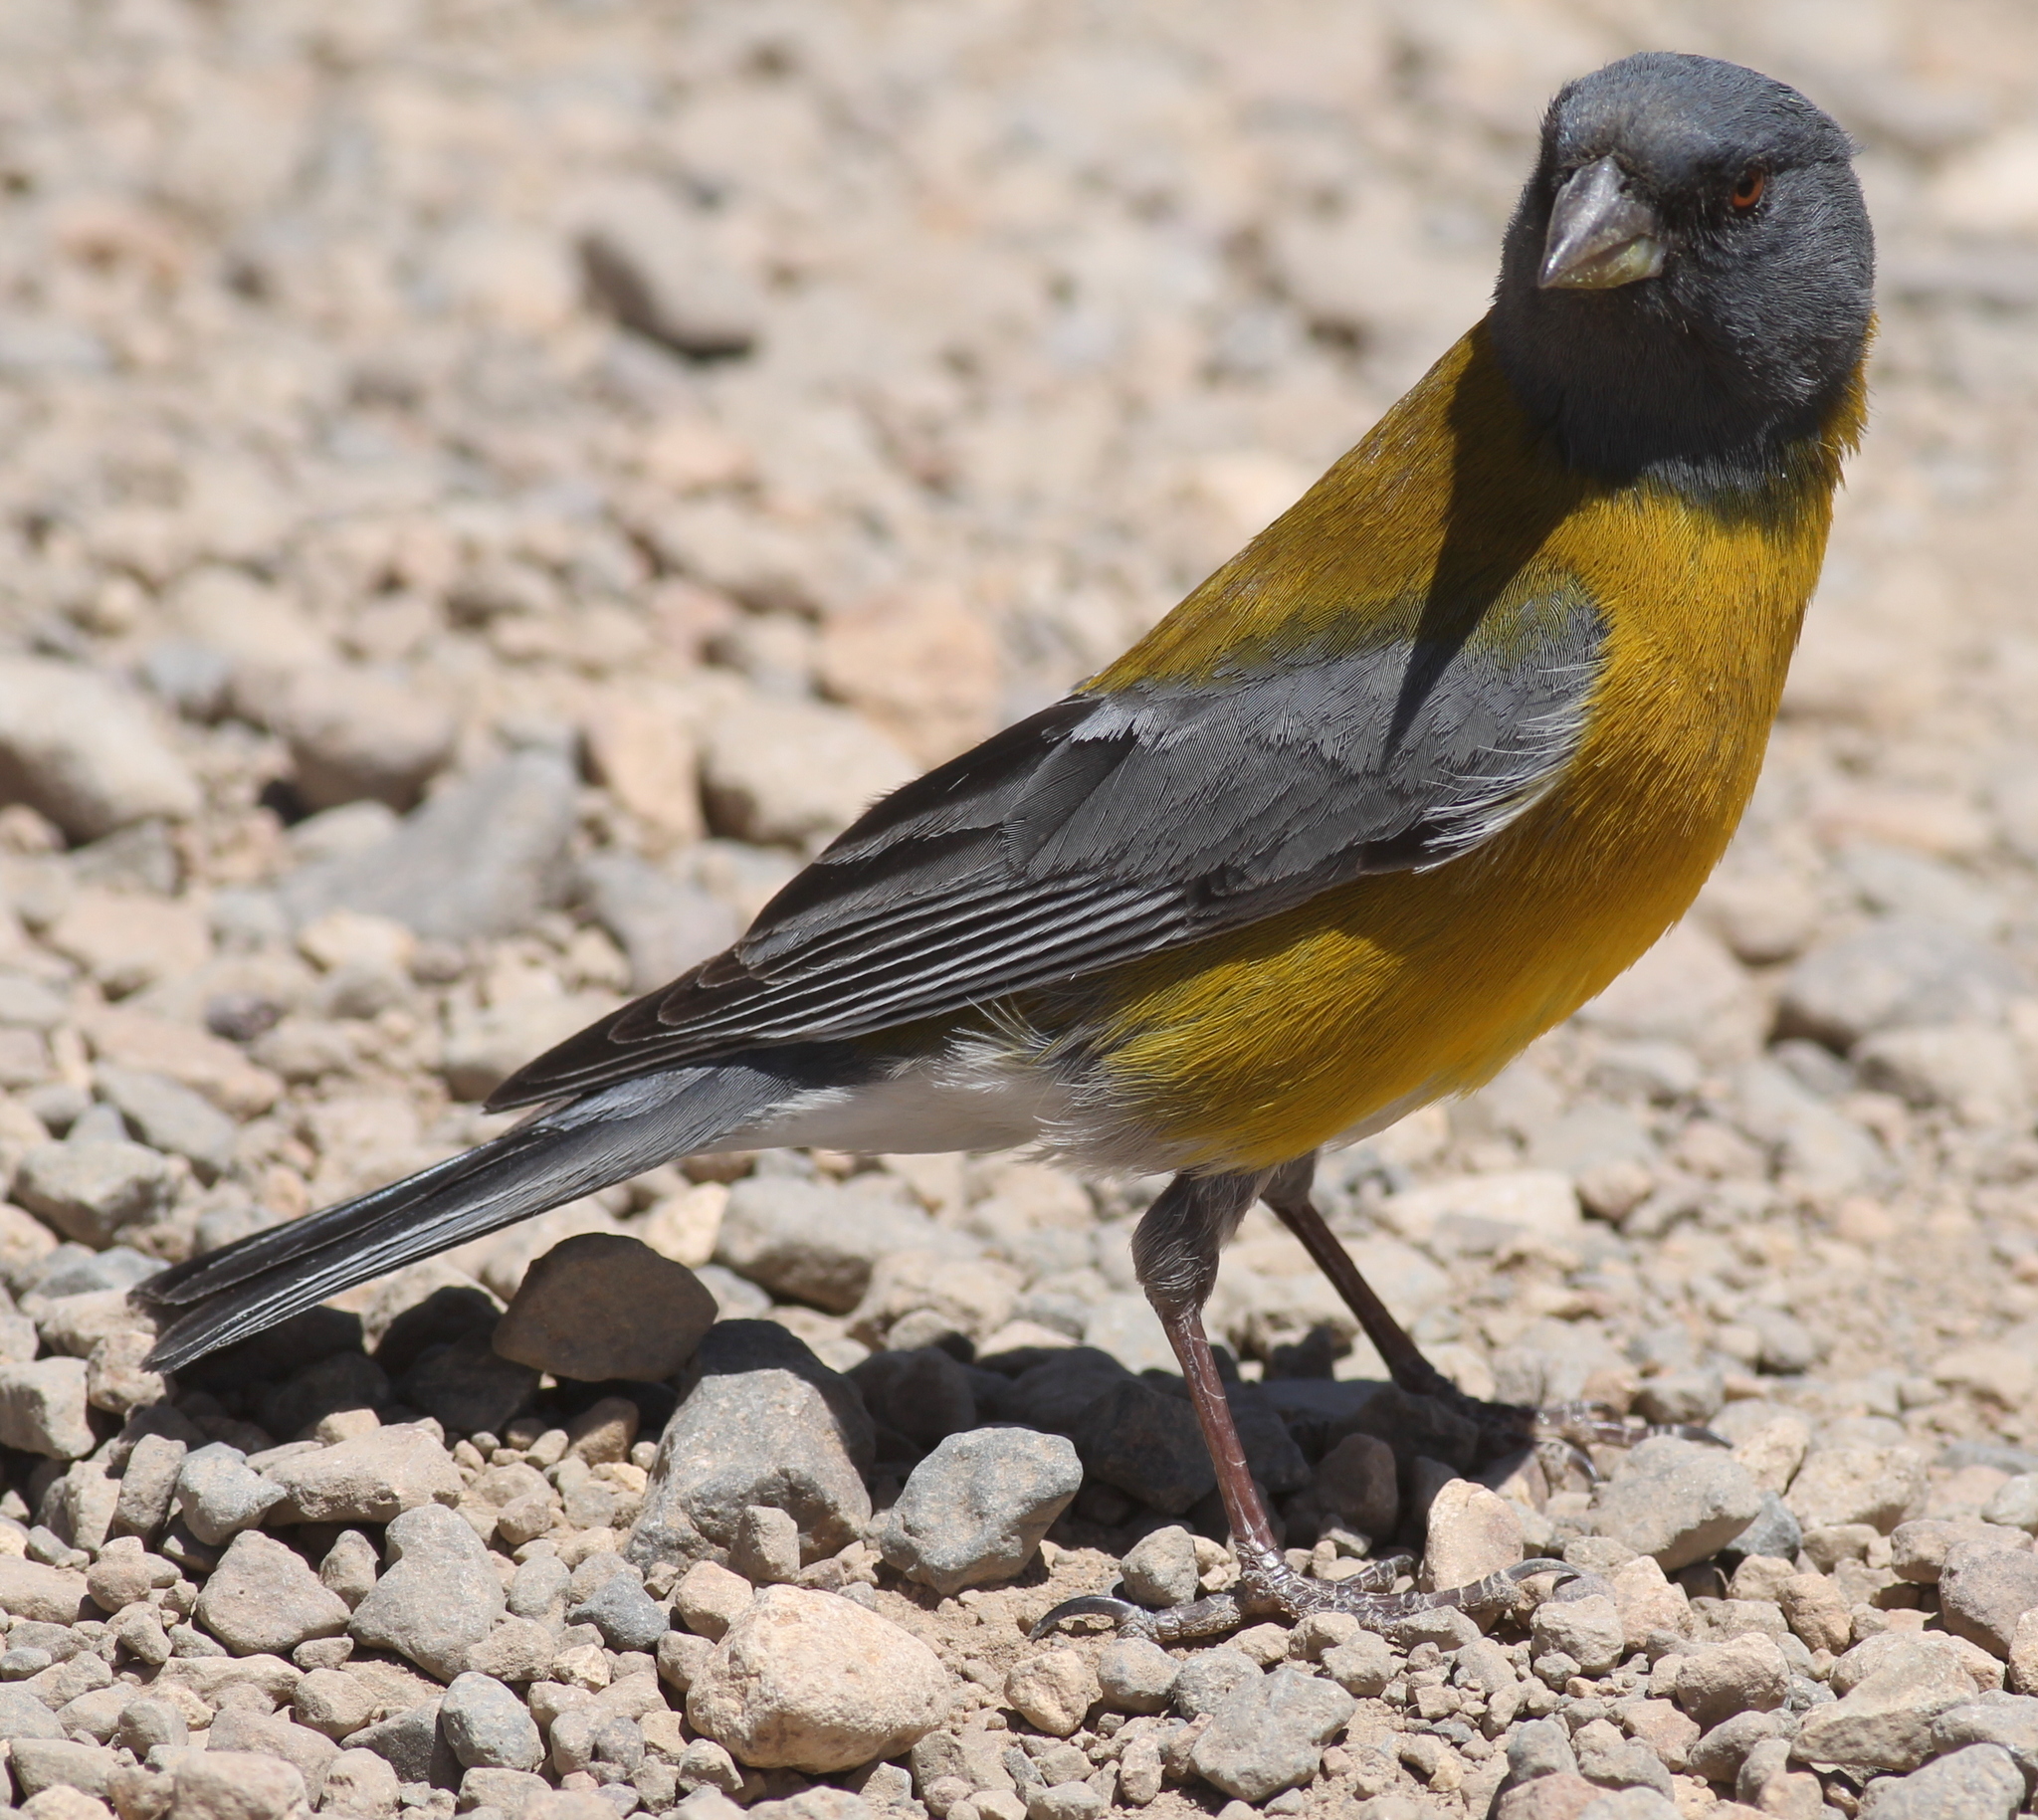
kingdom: Animalia
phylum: Chordata
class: Aves
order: Passeriformes
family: Thraupidae
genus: Phrygilus
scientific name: Phrygilus gayi
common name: Grey-hooded sierra finch
